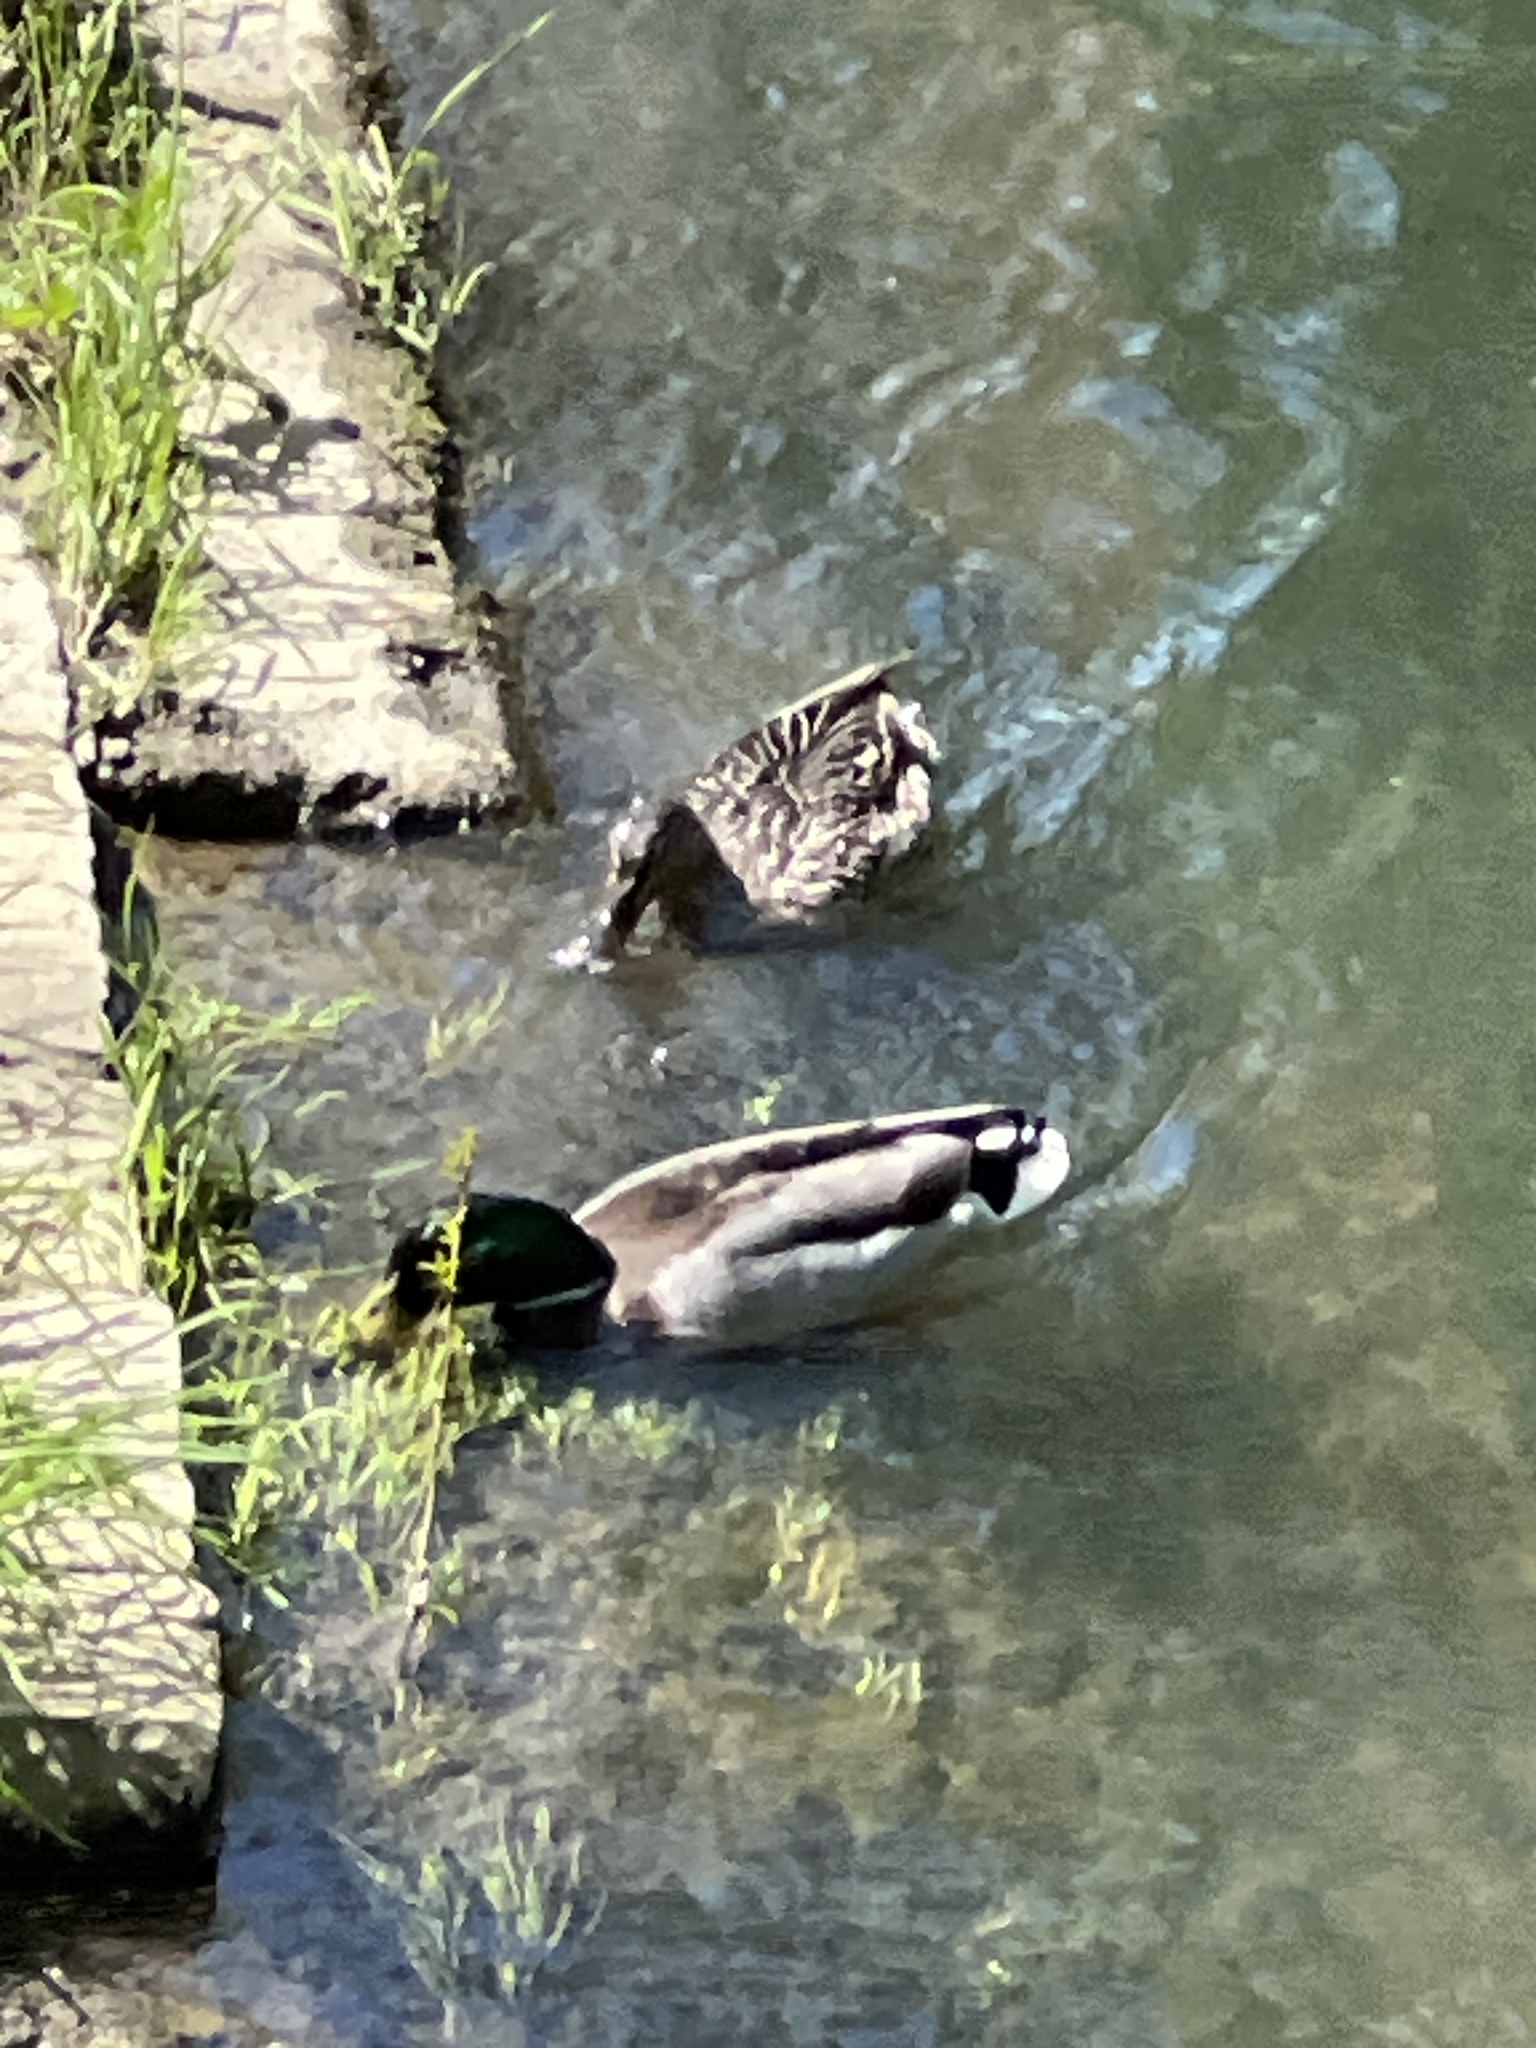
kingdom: Animalia
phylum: Chordata
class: Aves
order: Anseriformes
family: Anatidae
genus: Anas
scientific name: Anas platyrhynchos
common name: Mallard
